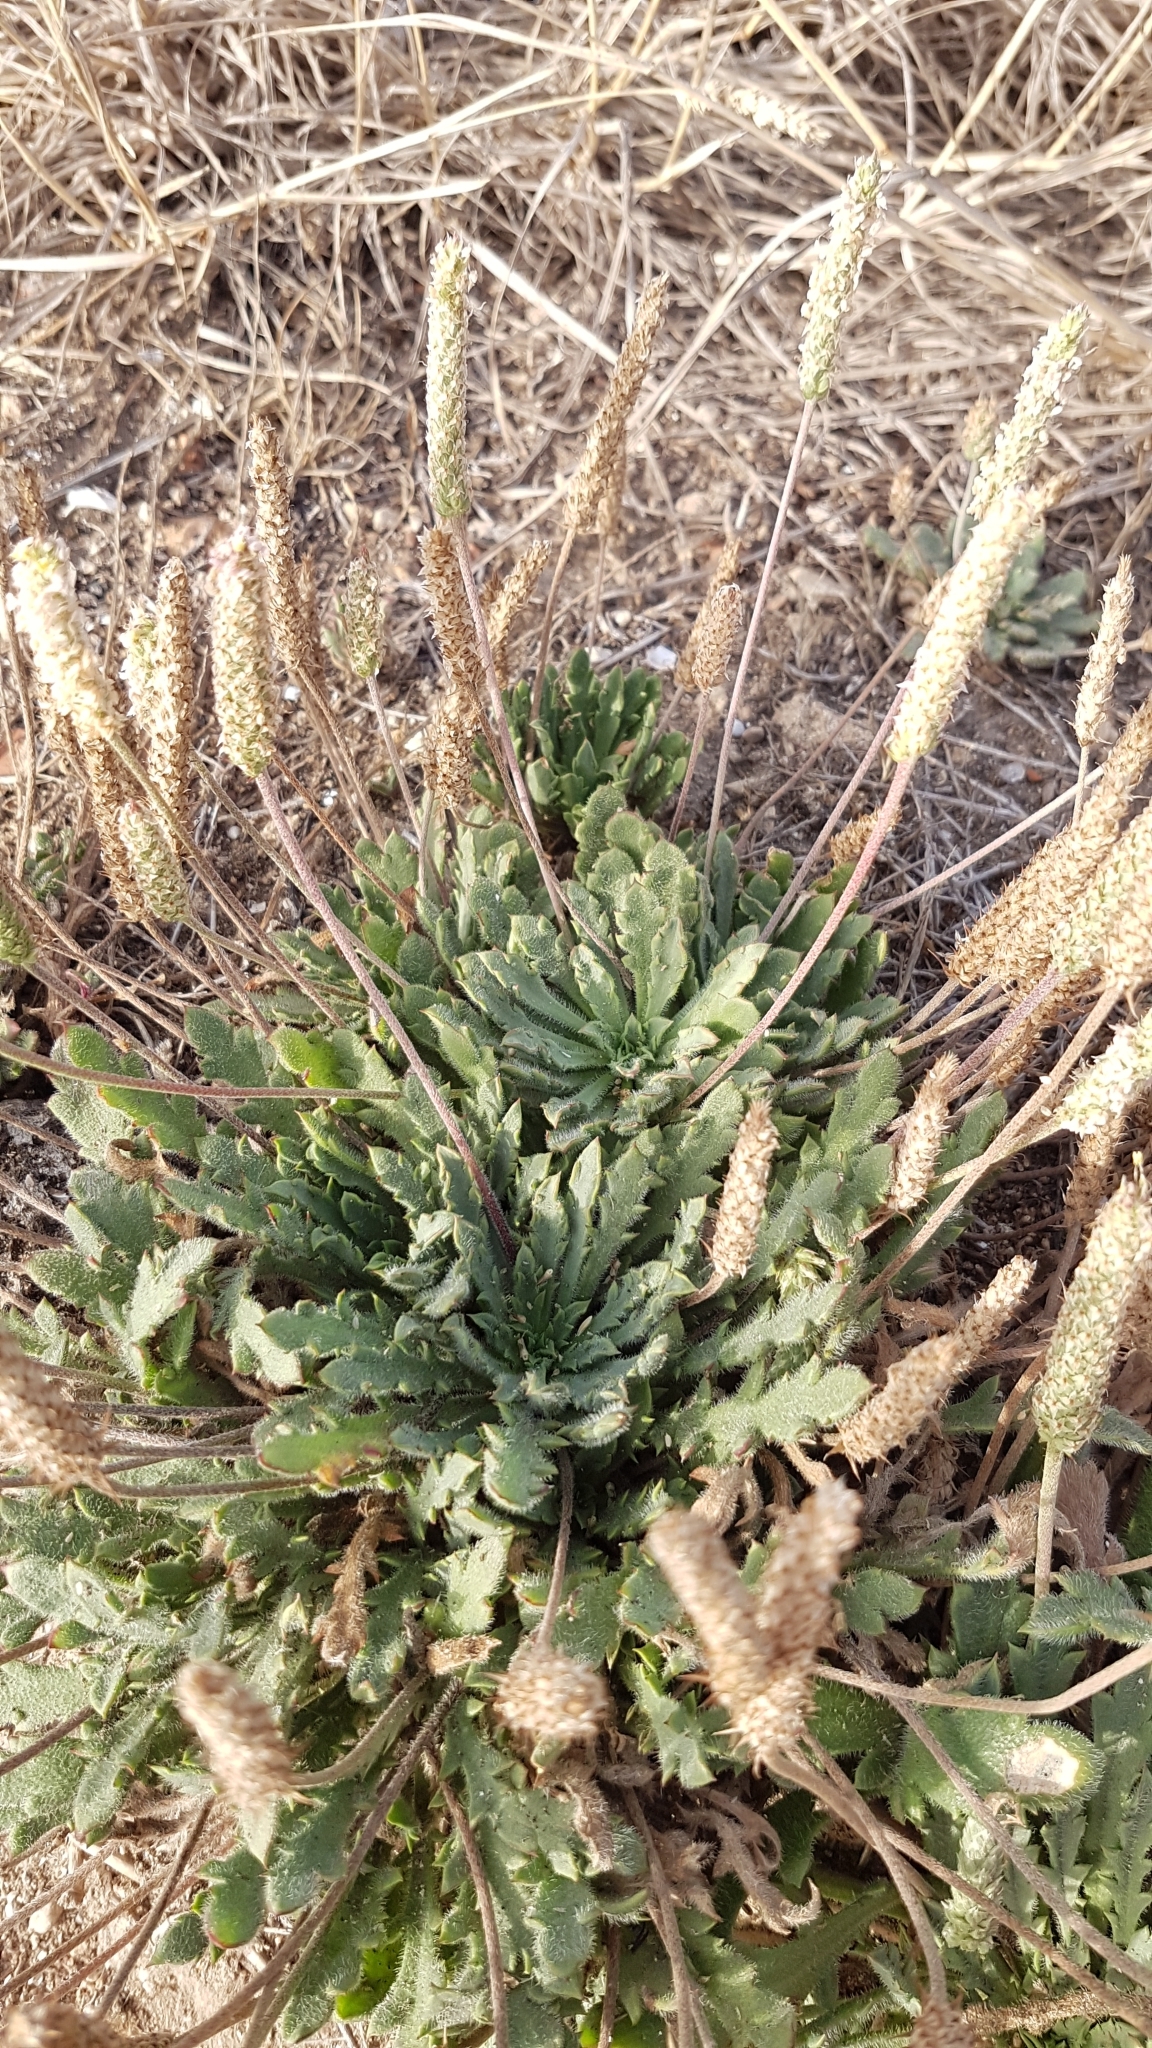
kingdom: Plantae
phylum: Tracheophyta
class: Magnoliopsida
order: Lamiales
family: Plantaginaceae
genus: Plantago
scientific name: Plantago macrorhiza
